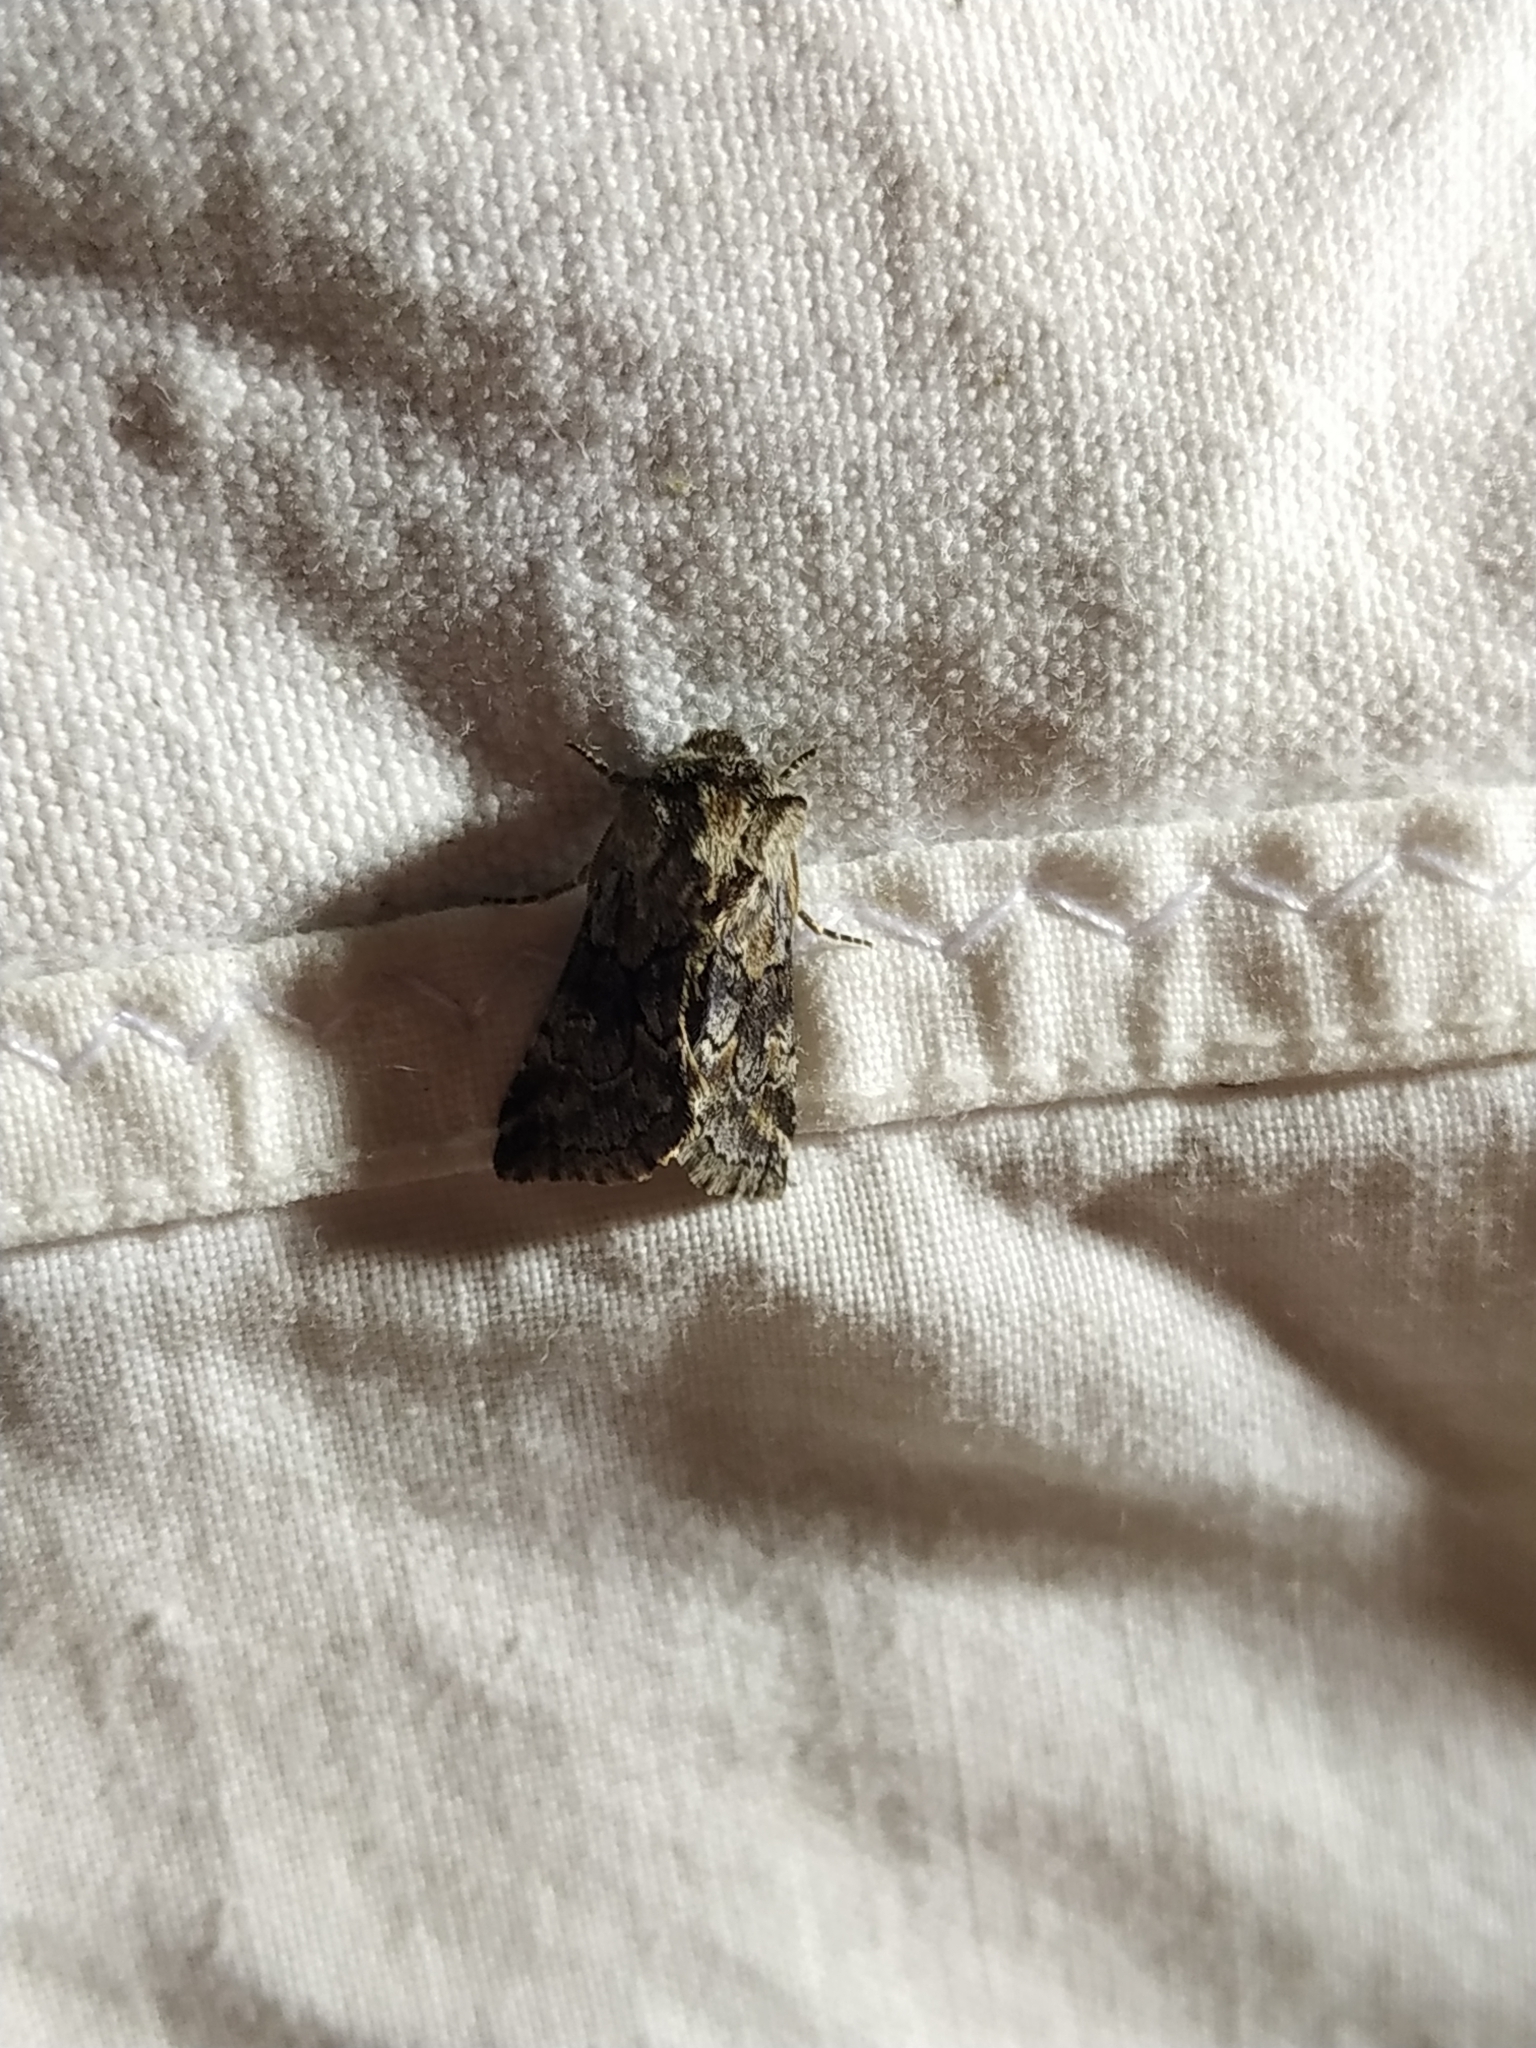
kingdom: Animalia
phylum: Arthropoda
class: Insecta
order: Lepidoptera
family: Noctuidae
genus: Cleonymia
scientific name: Cleonymia yvanii
